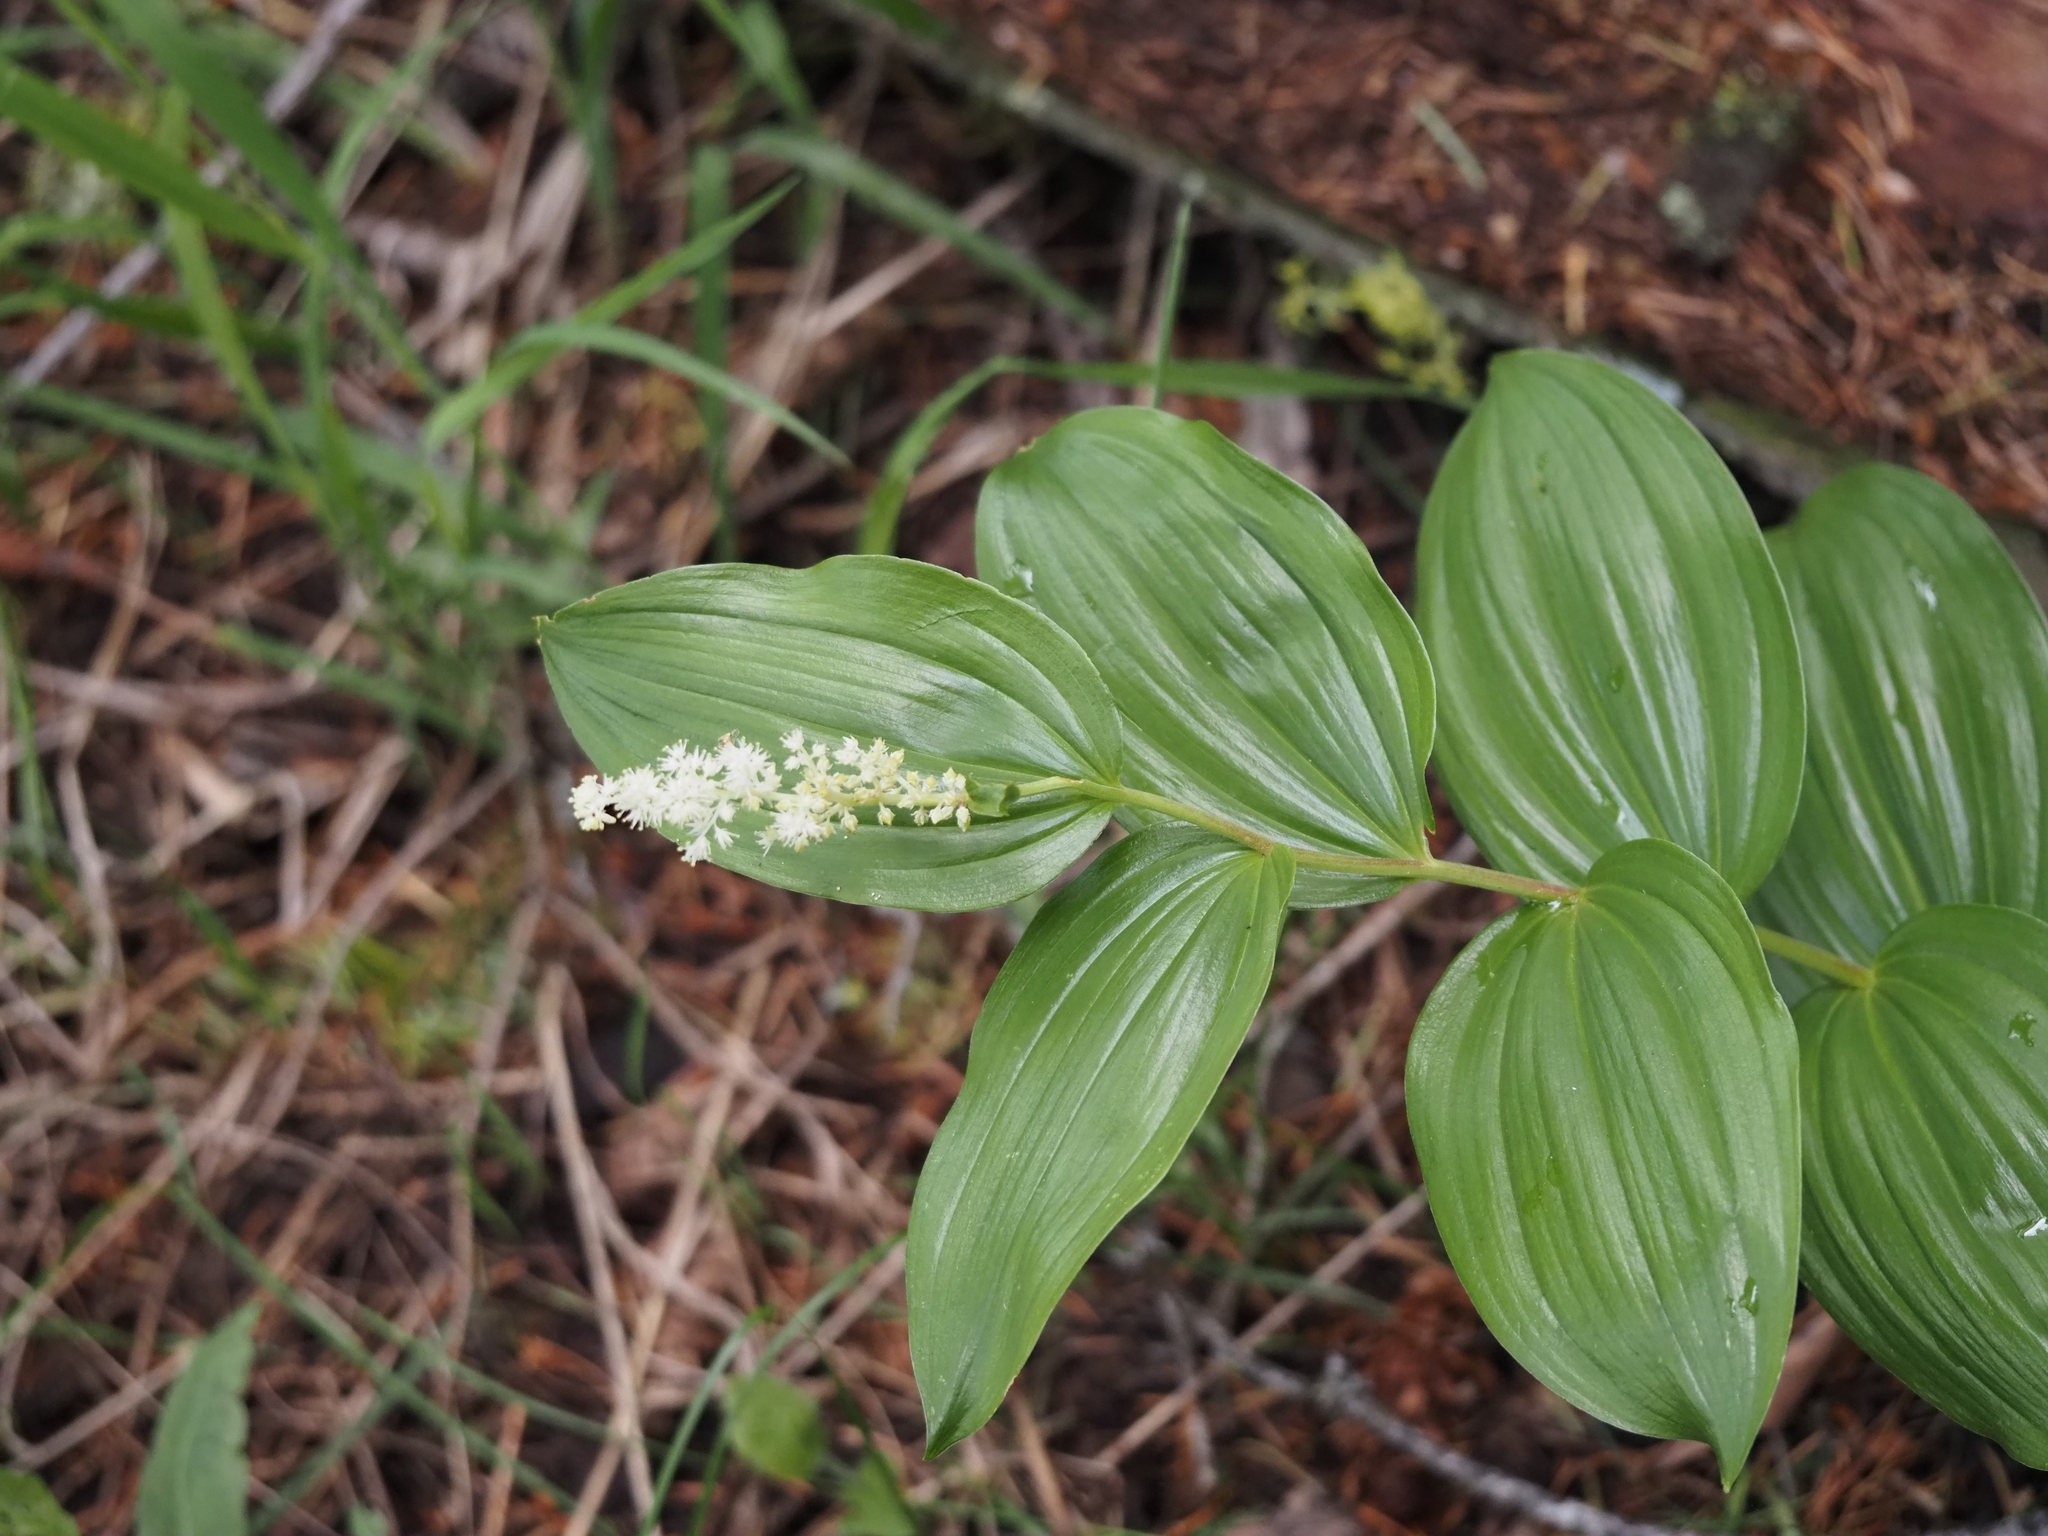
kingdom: Plantae
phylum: Tracheophyta
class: Liliopsida
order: Asparagales
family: Asparagaceae
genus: Maianthemum
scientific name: Maianthemum racemosum
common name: False spikenard
